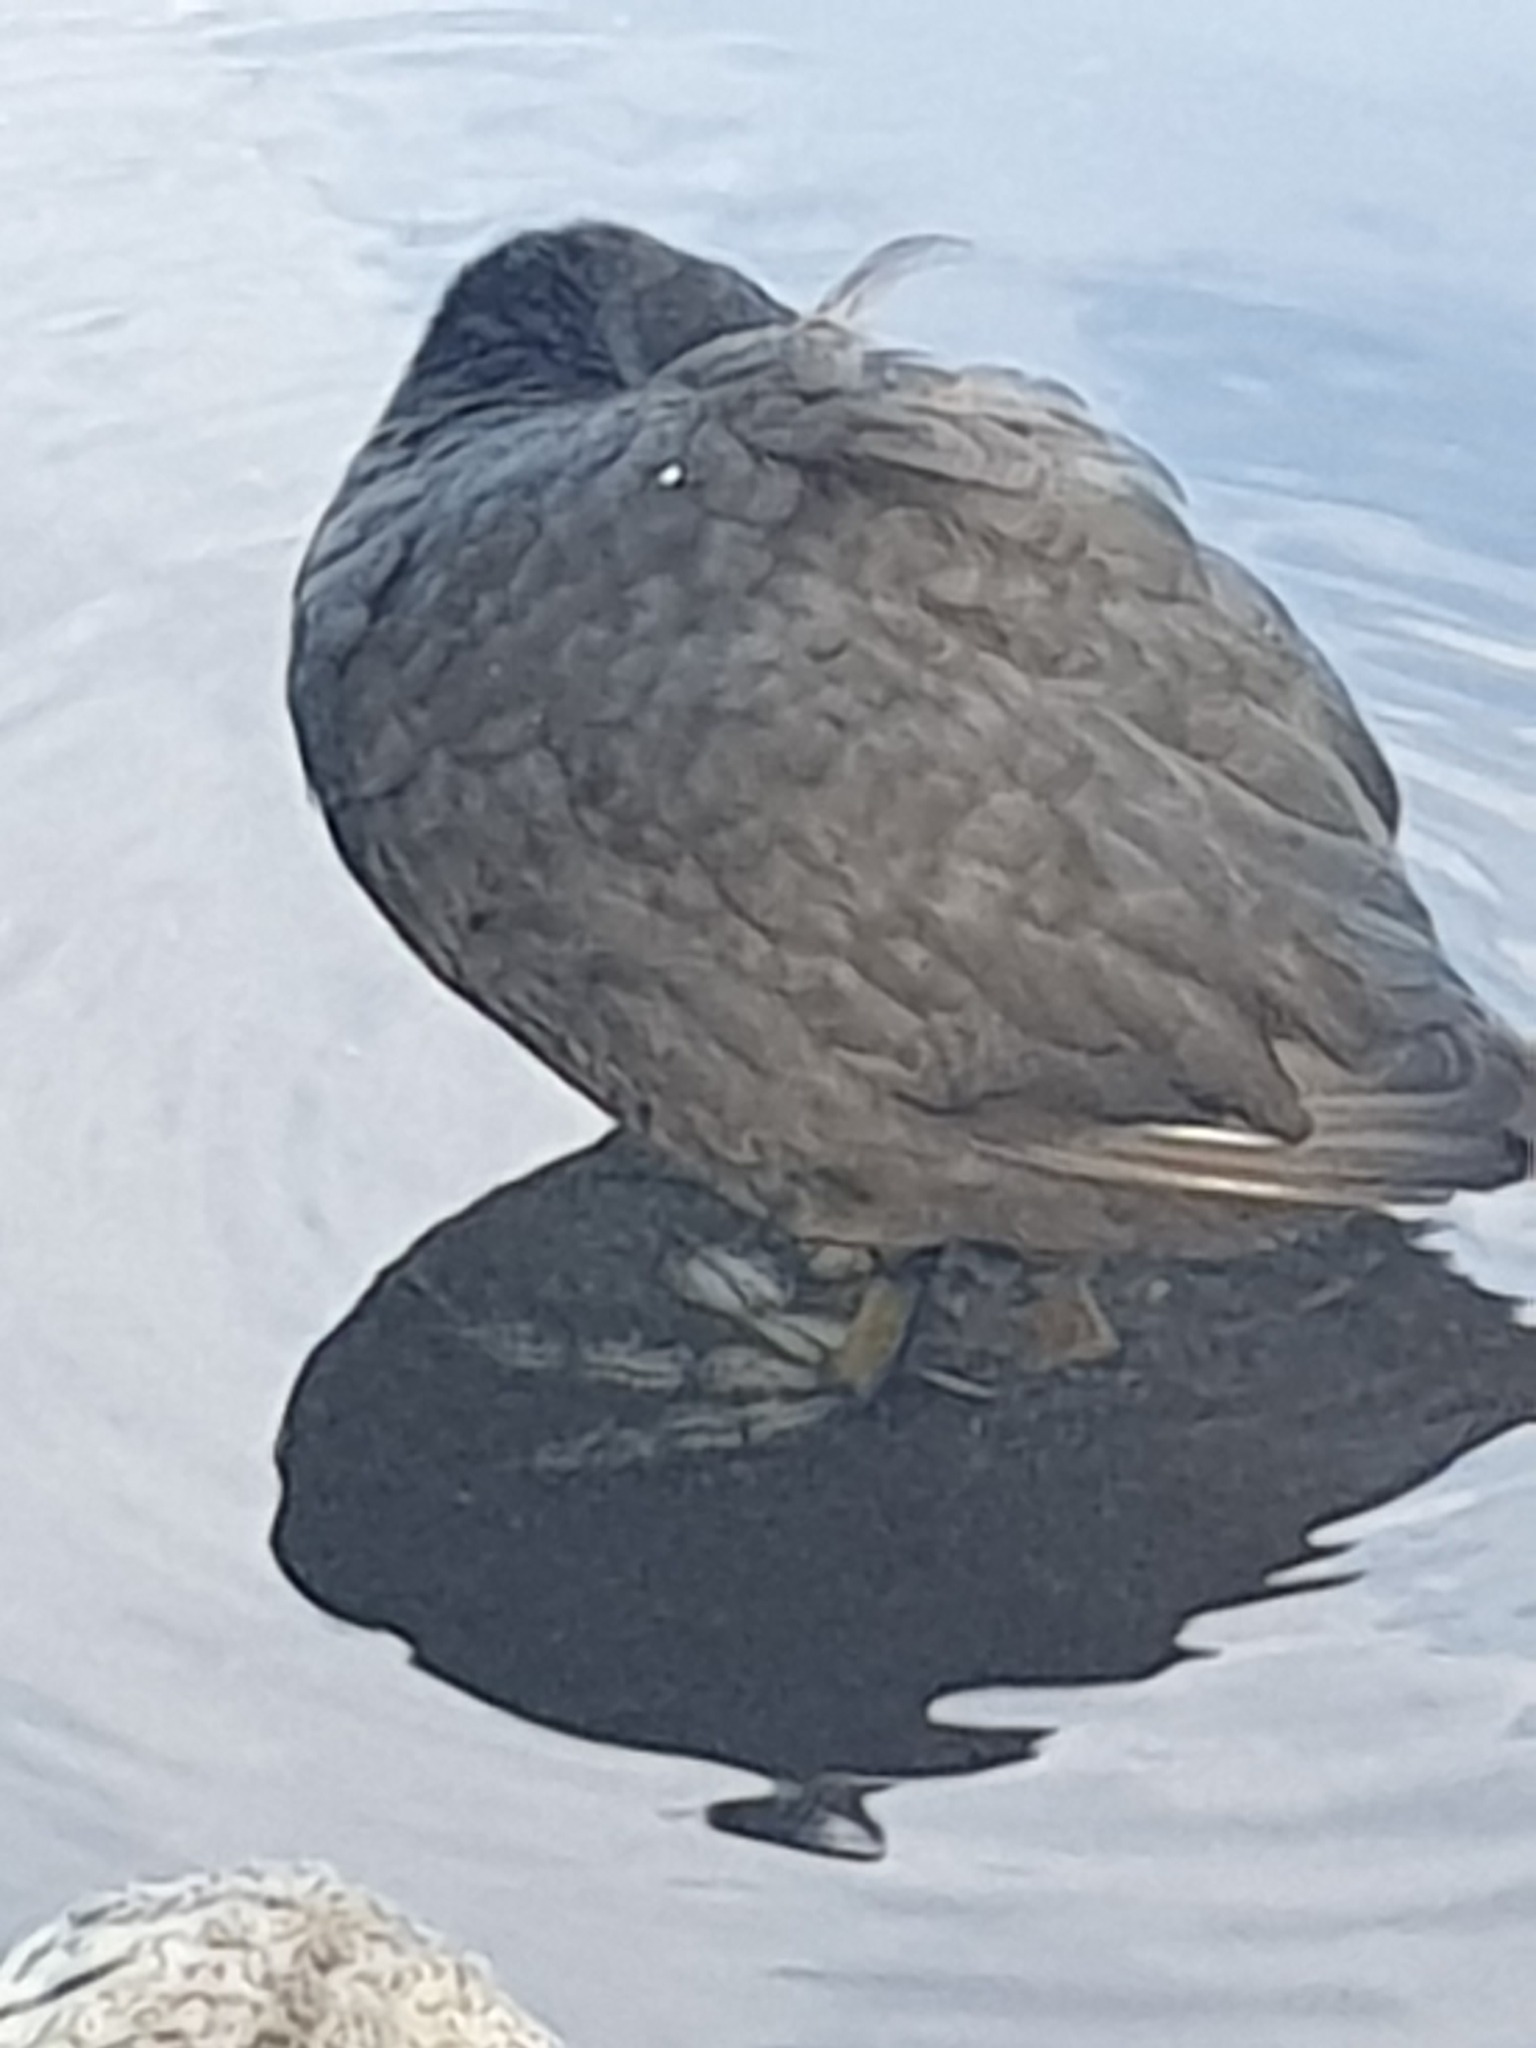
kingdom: Animalia
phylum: Chordata
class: Aves
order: Gruiformes
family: Rallidae
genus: Fulica
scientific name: Fulica atra
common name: Eurasian coot
